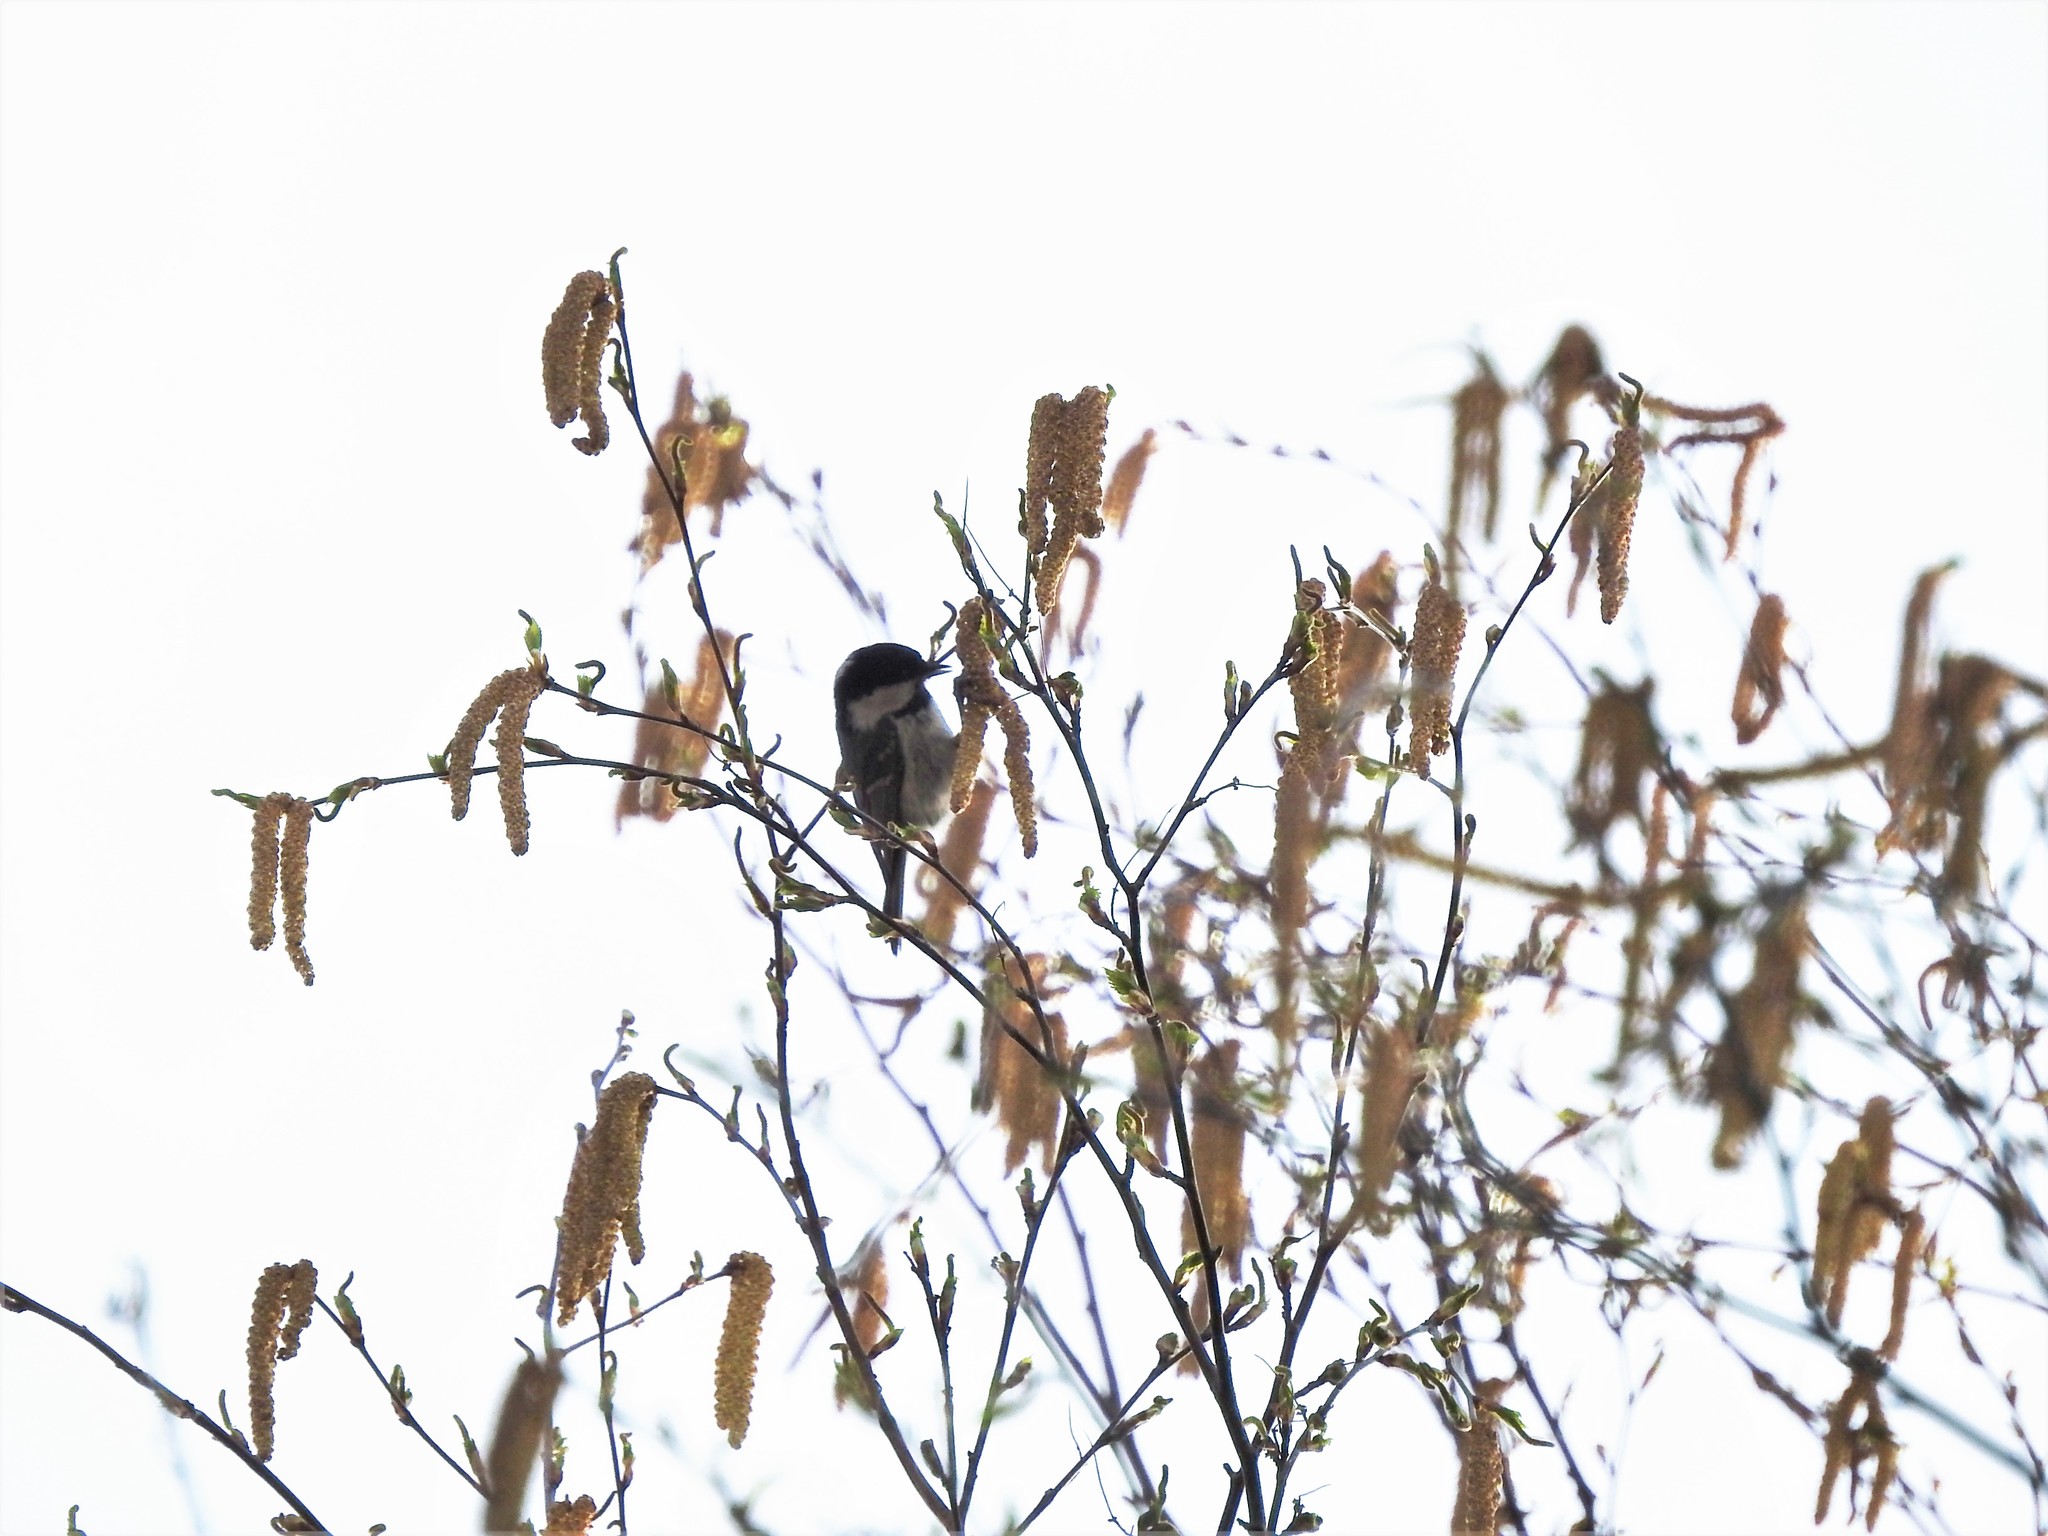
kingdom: Animalia
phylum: Chordata
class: Aves
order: Passeriformes
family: Paridae
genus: Periparus
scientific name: Periparus ater
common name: Coal tit
